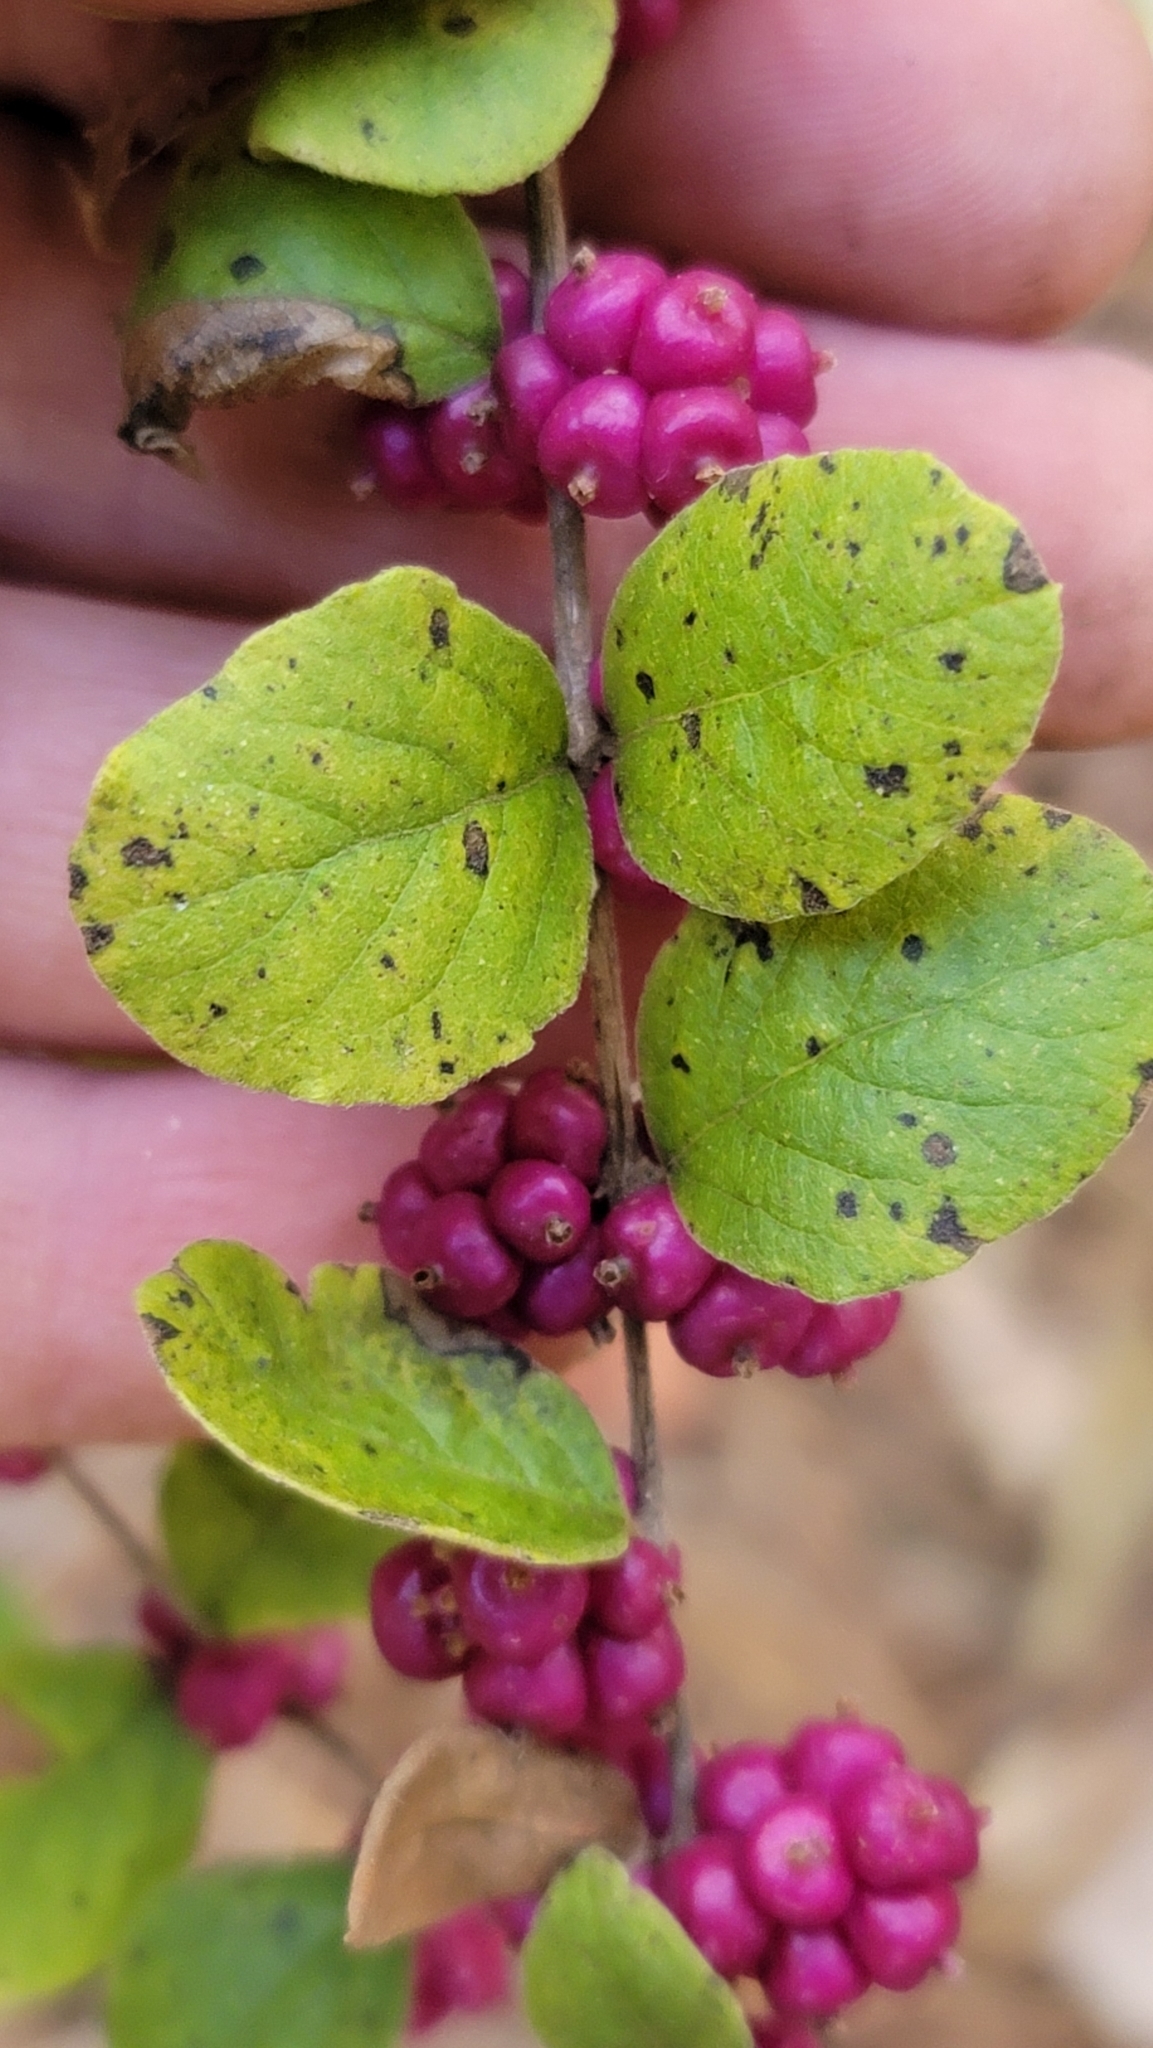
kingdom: Plantae
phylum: Tracheophyta
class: Magnoliopsida
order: Dipsacales
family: Caprifoliaceae
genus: Symphoricarpos
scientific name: Symphoricarpos orbiculatus
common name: Coralberry
